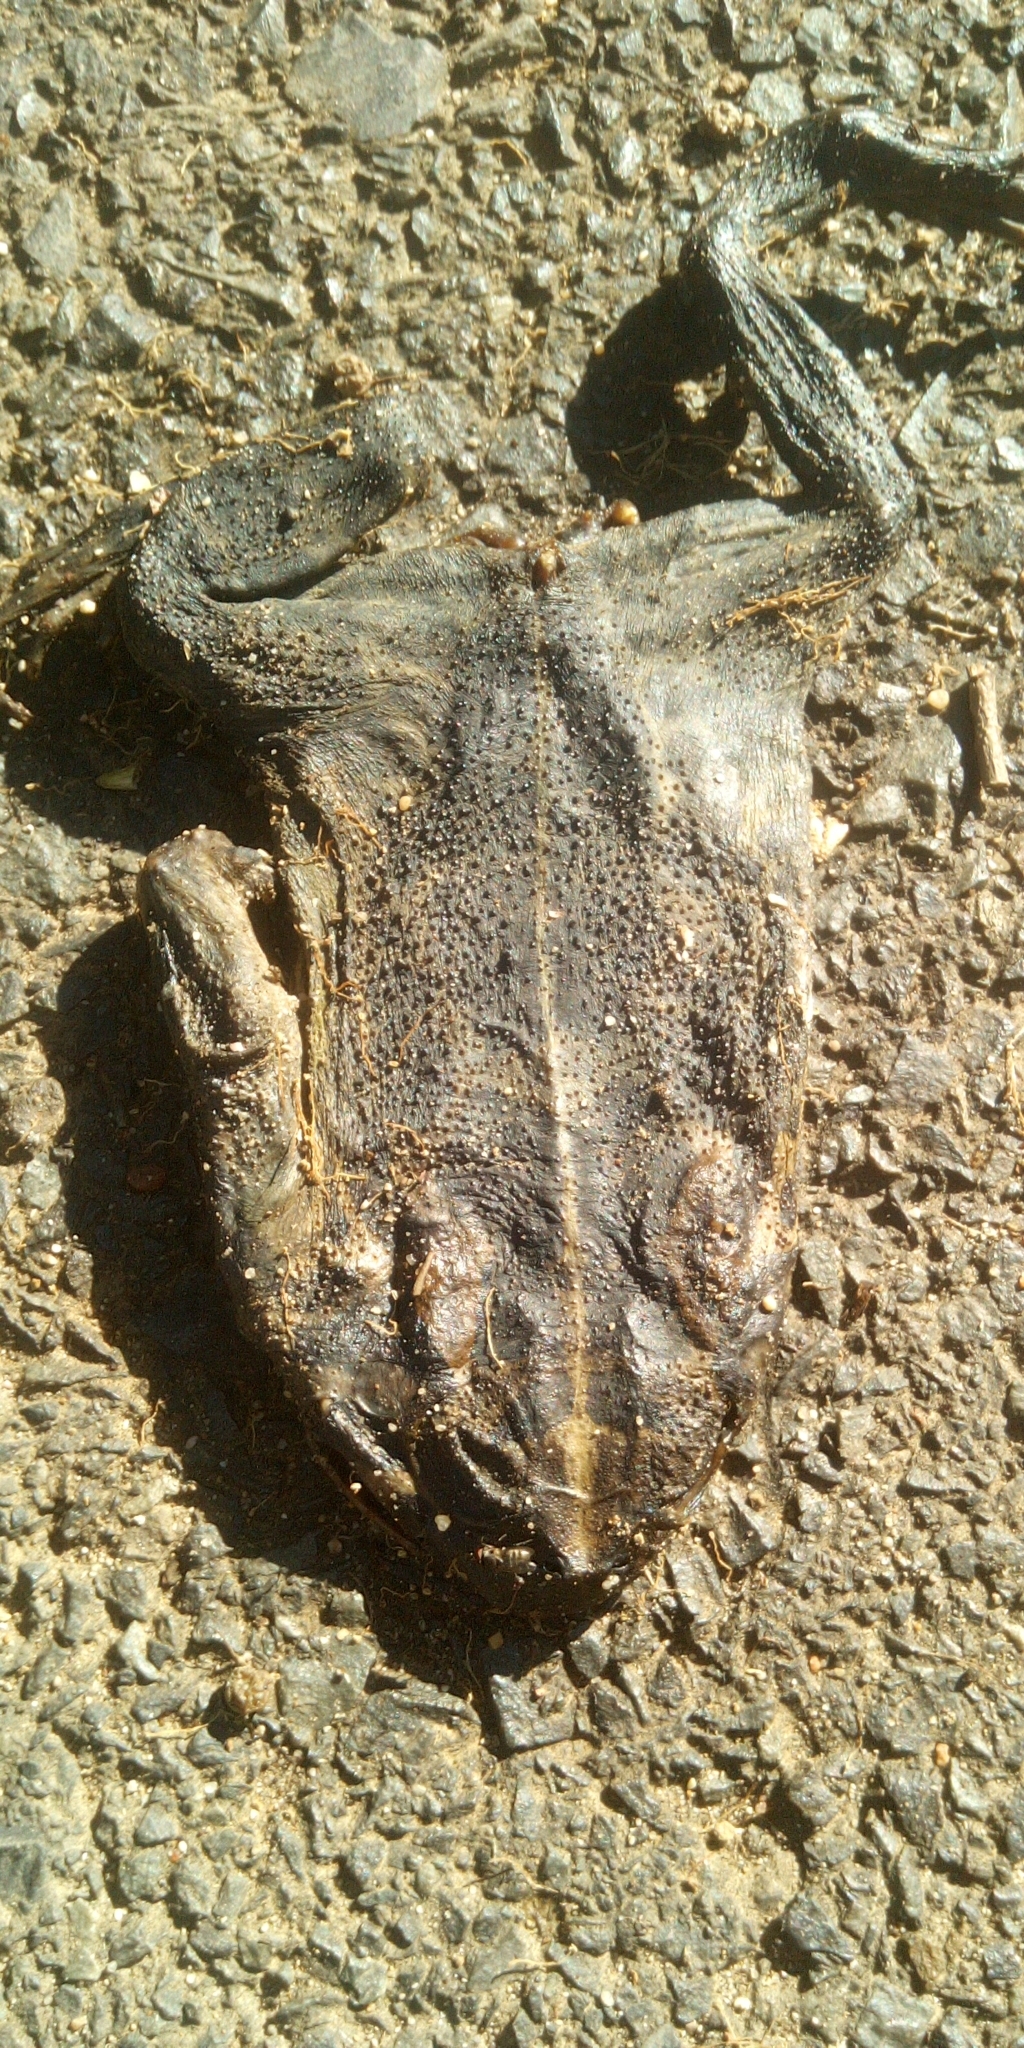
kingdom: Animalia
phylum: Chordata
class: Amphibia
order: Anura
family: Bufonidae
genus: Sclerophrys
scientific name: Sclerophrys pantherina
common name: Panther toad
